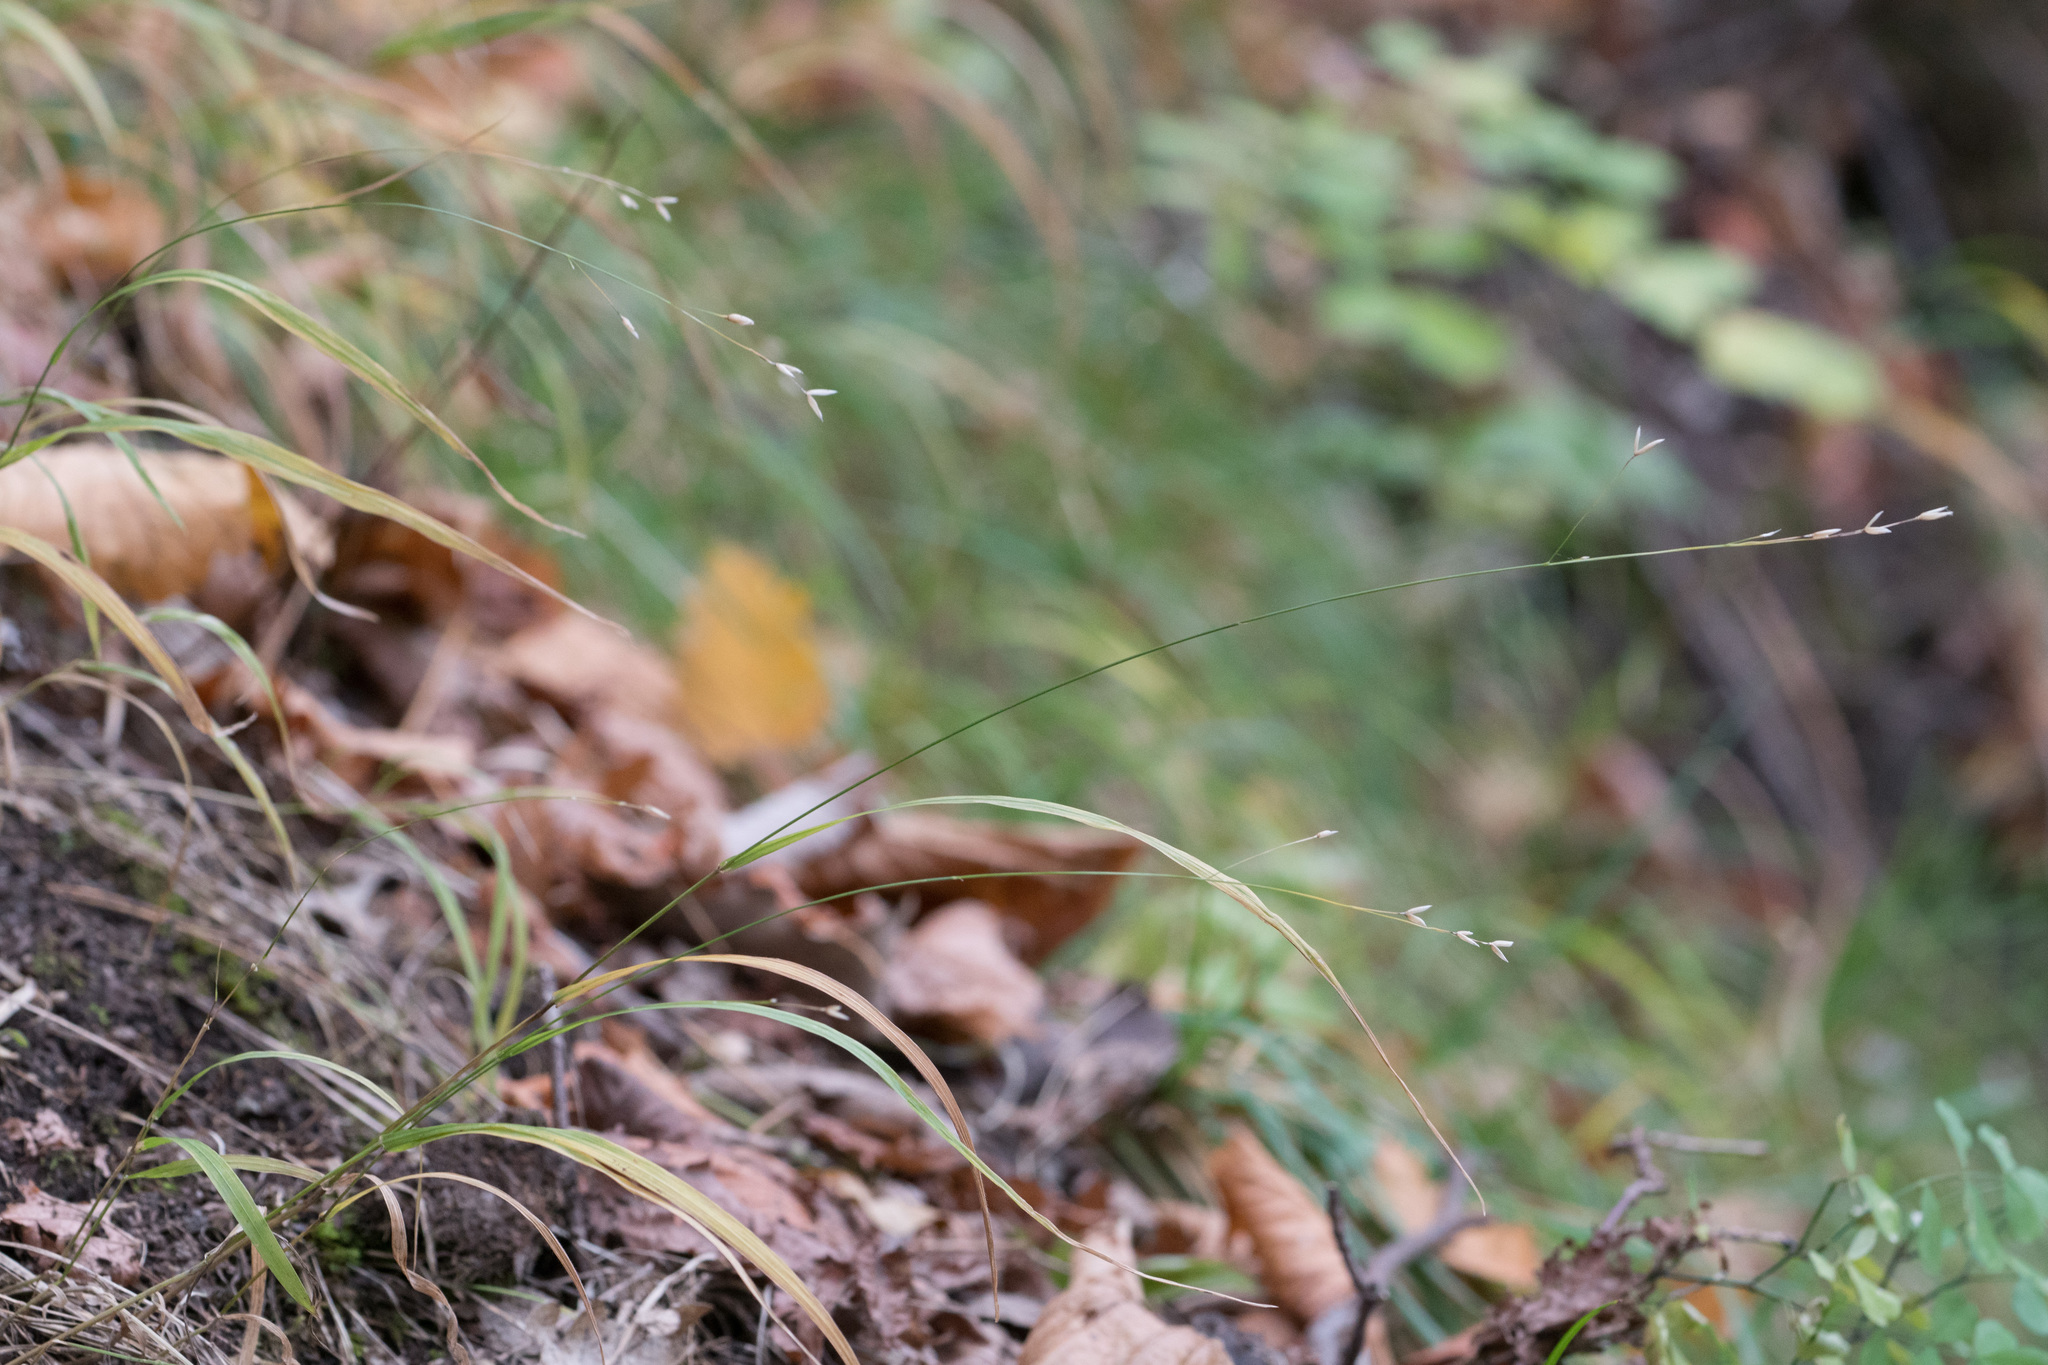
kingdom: Plantae
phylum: Tracheophyta
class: Liliopsida
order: Poales
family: Poaceae
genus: Melica
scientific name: Melica uniflora
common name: Wood melick
